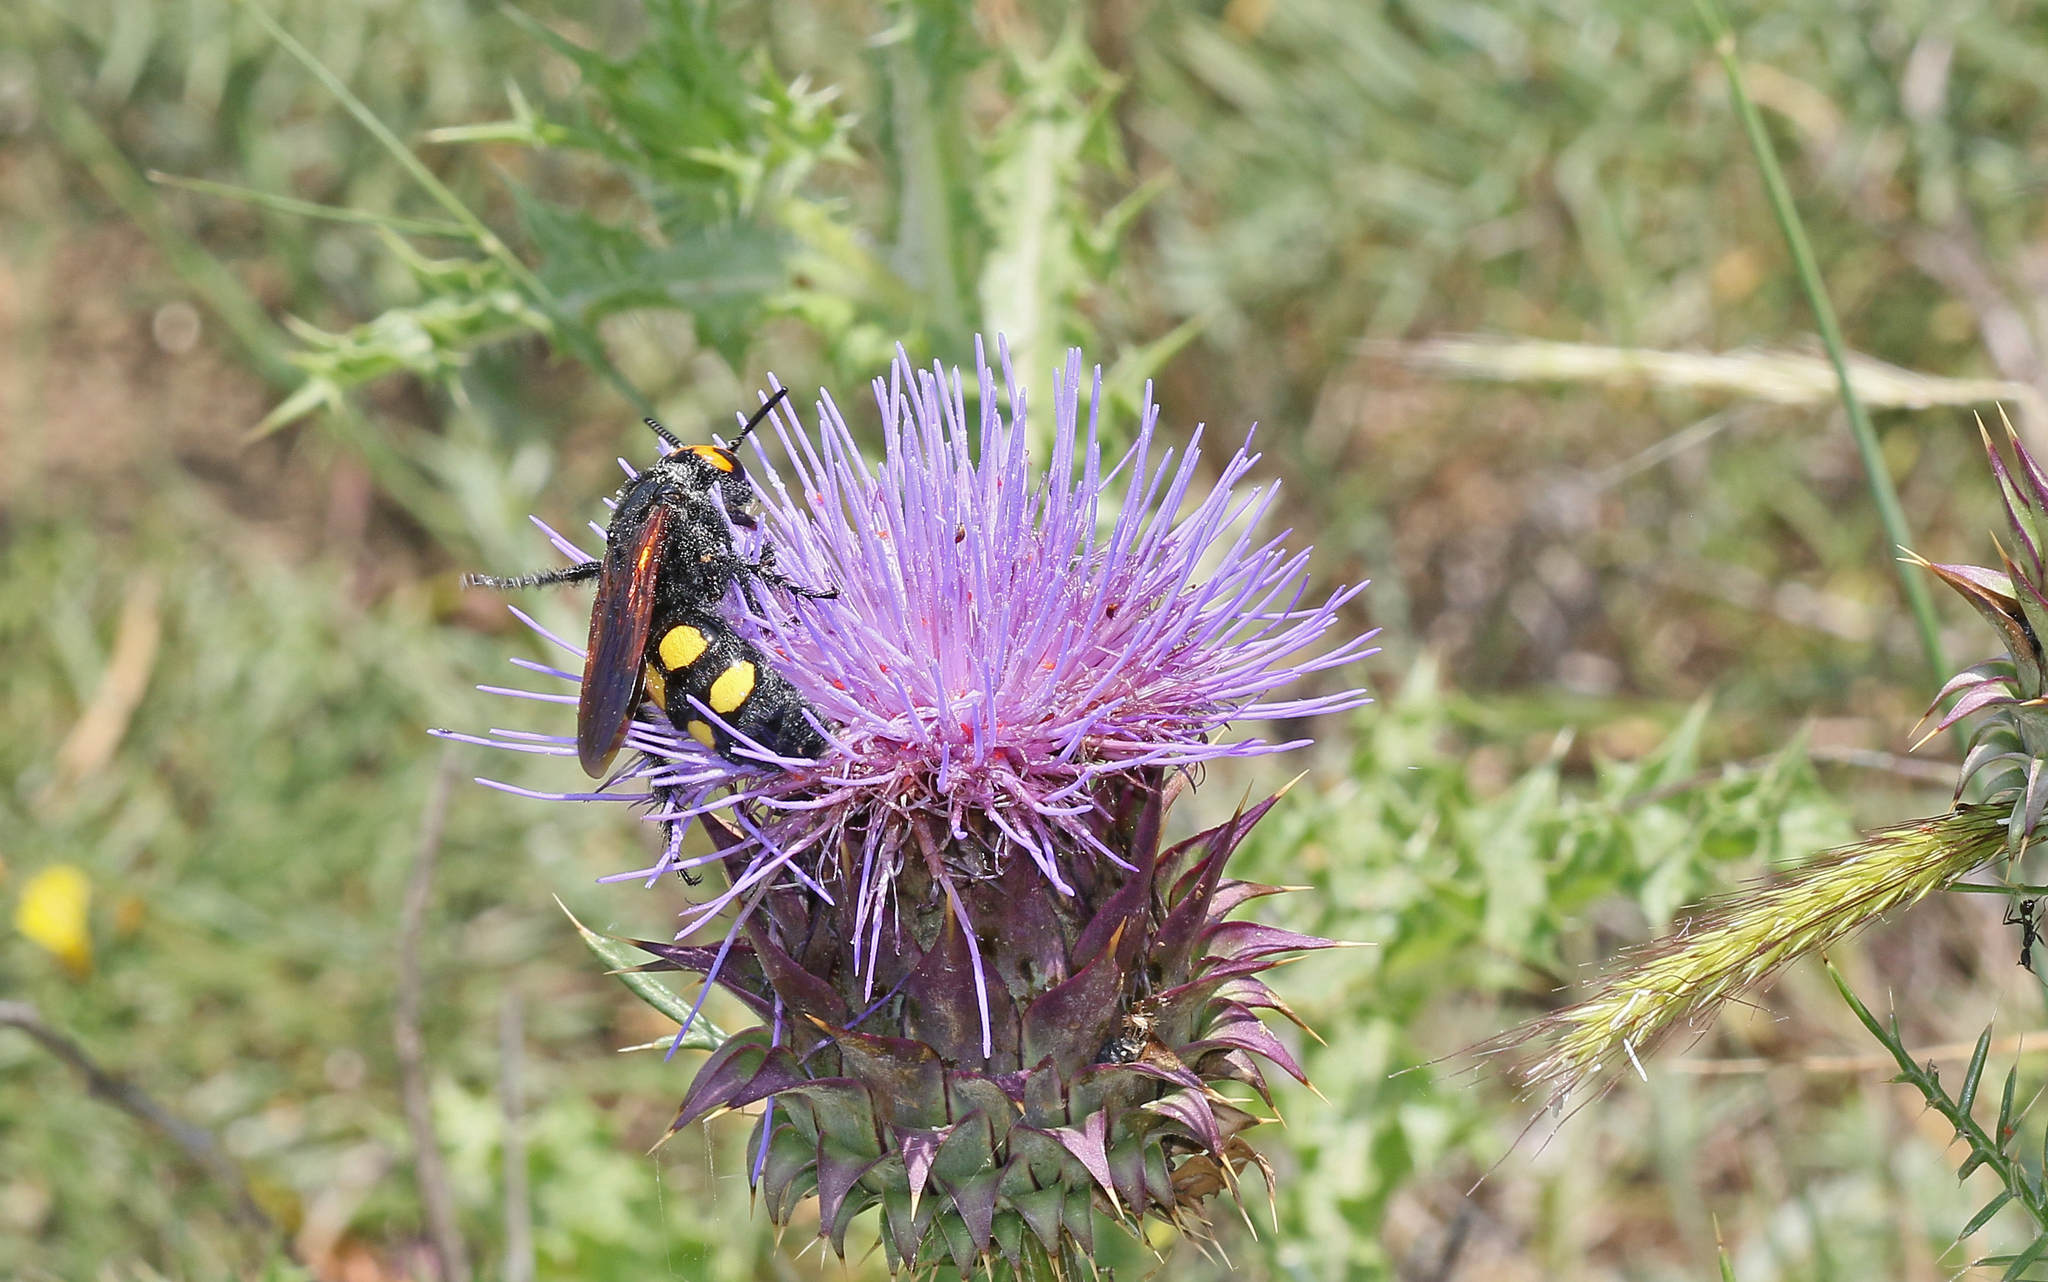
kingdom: Animalia
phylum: Arthropoda
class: Insecta
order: Hymenoptera
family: Scoliidae
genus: Megascolia
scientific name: Megascolia maculata
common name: Mammoth wasp
